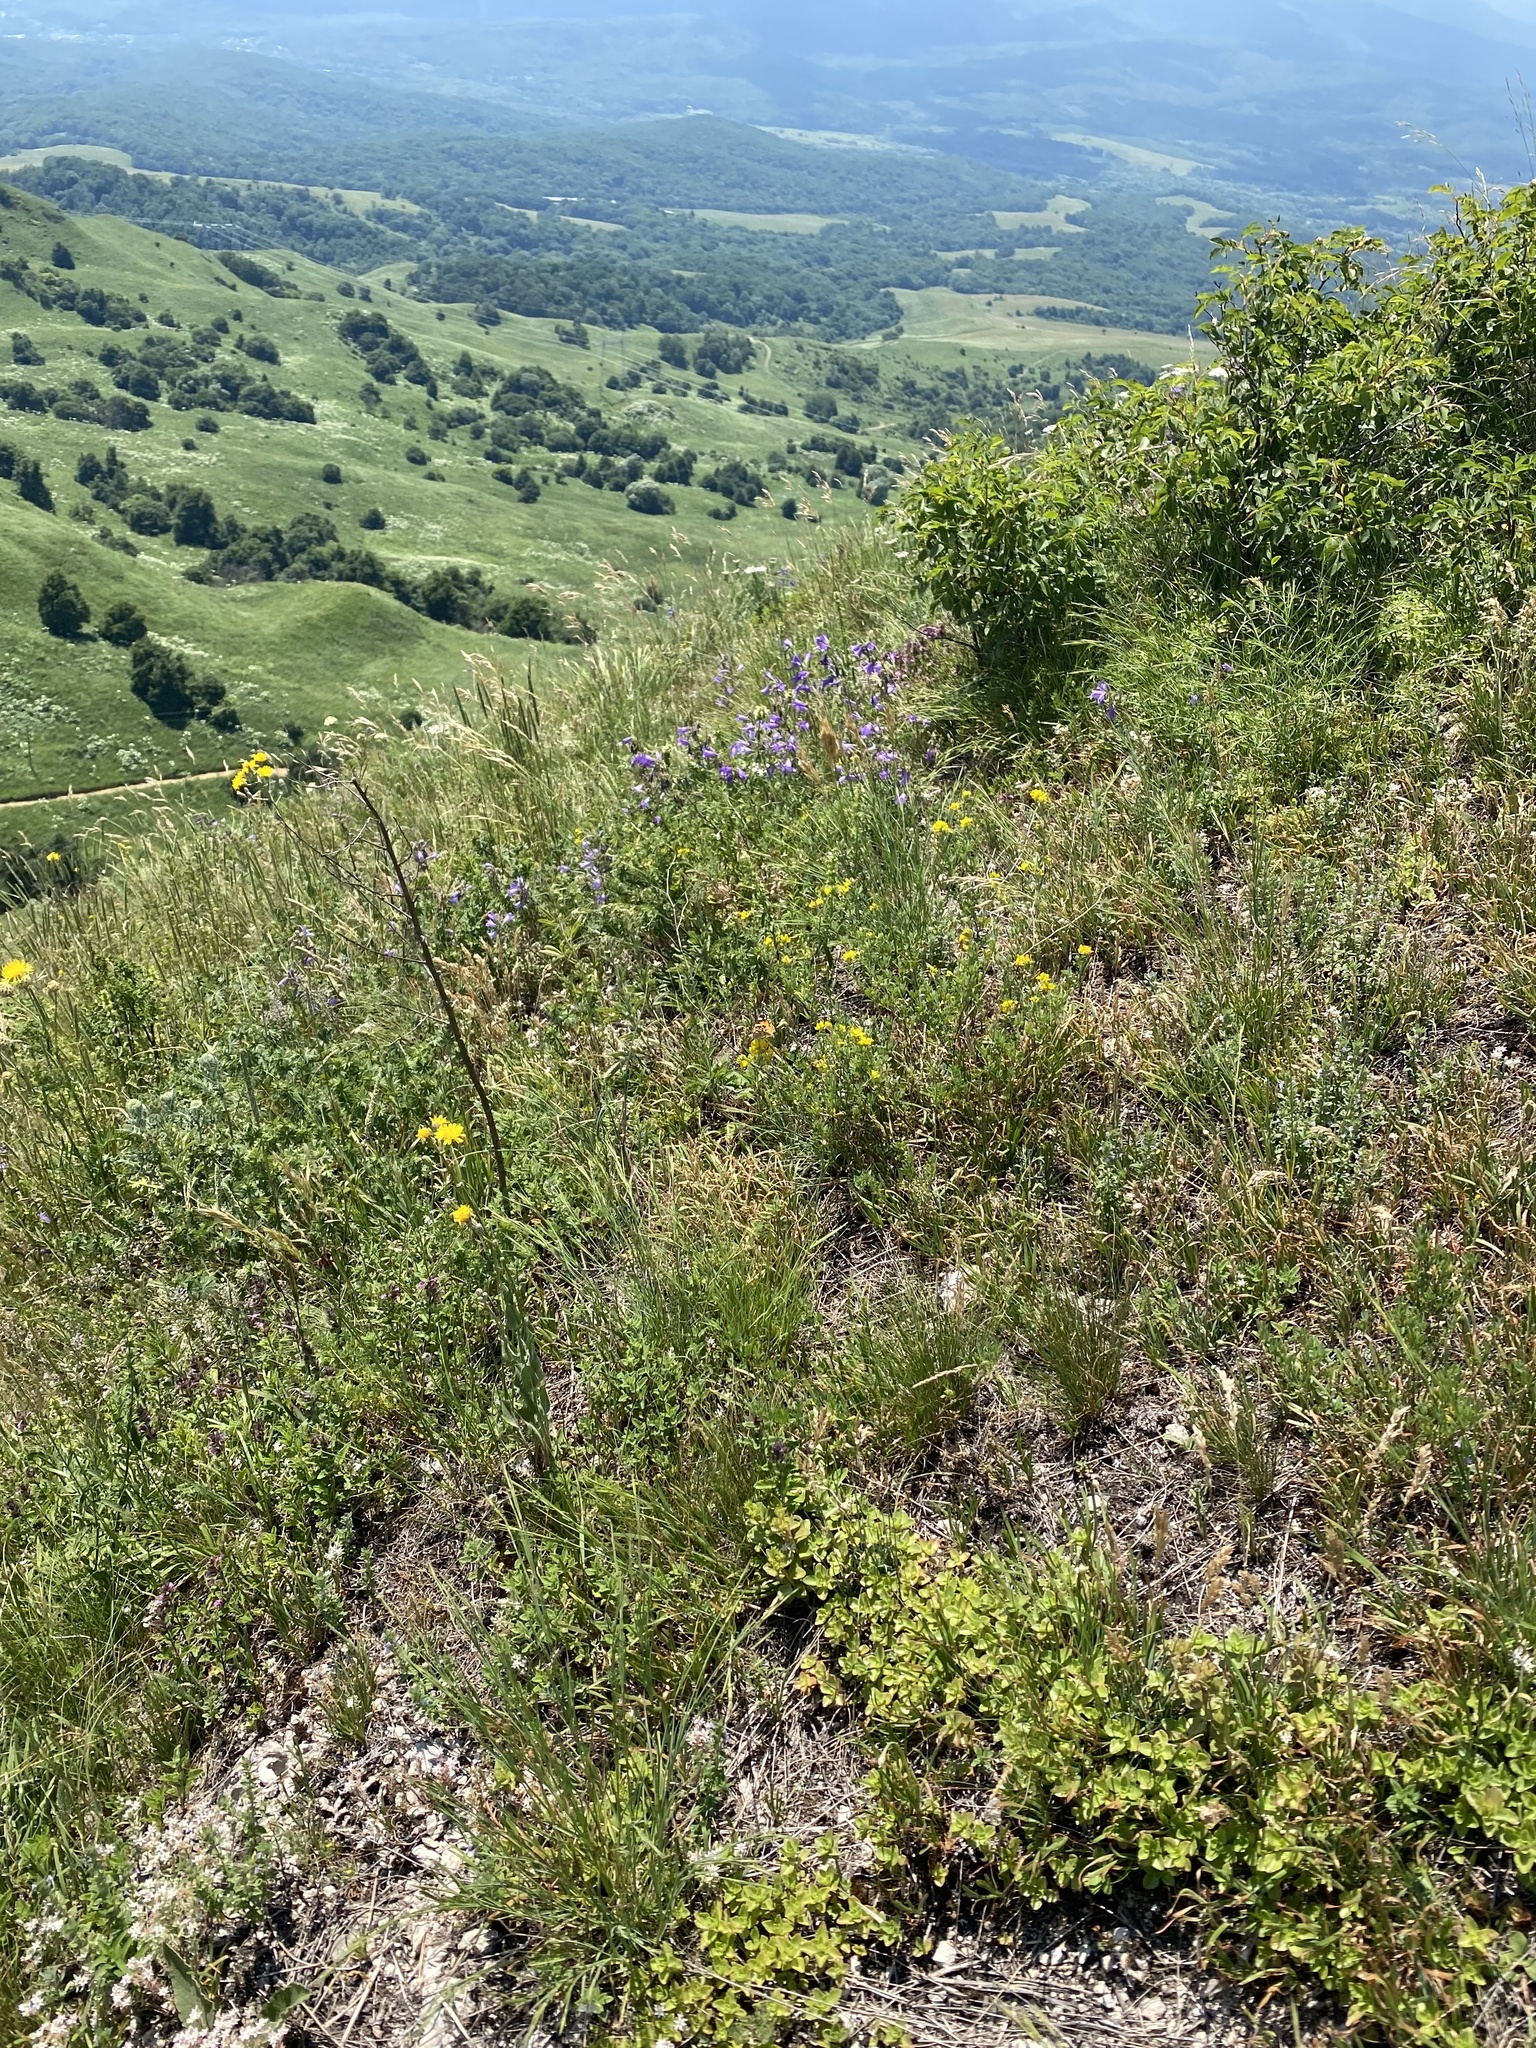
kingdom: Animalia
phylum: Arthropoda
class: Insecta
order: Lepidoptera
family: Nymphalidae
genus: Vanessa
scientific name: Vanessa cardui
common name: Painted lady
